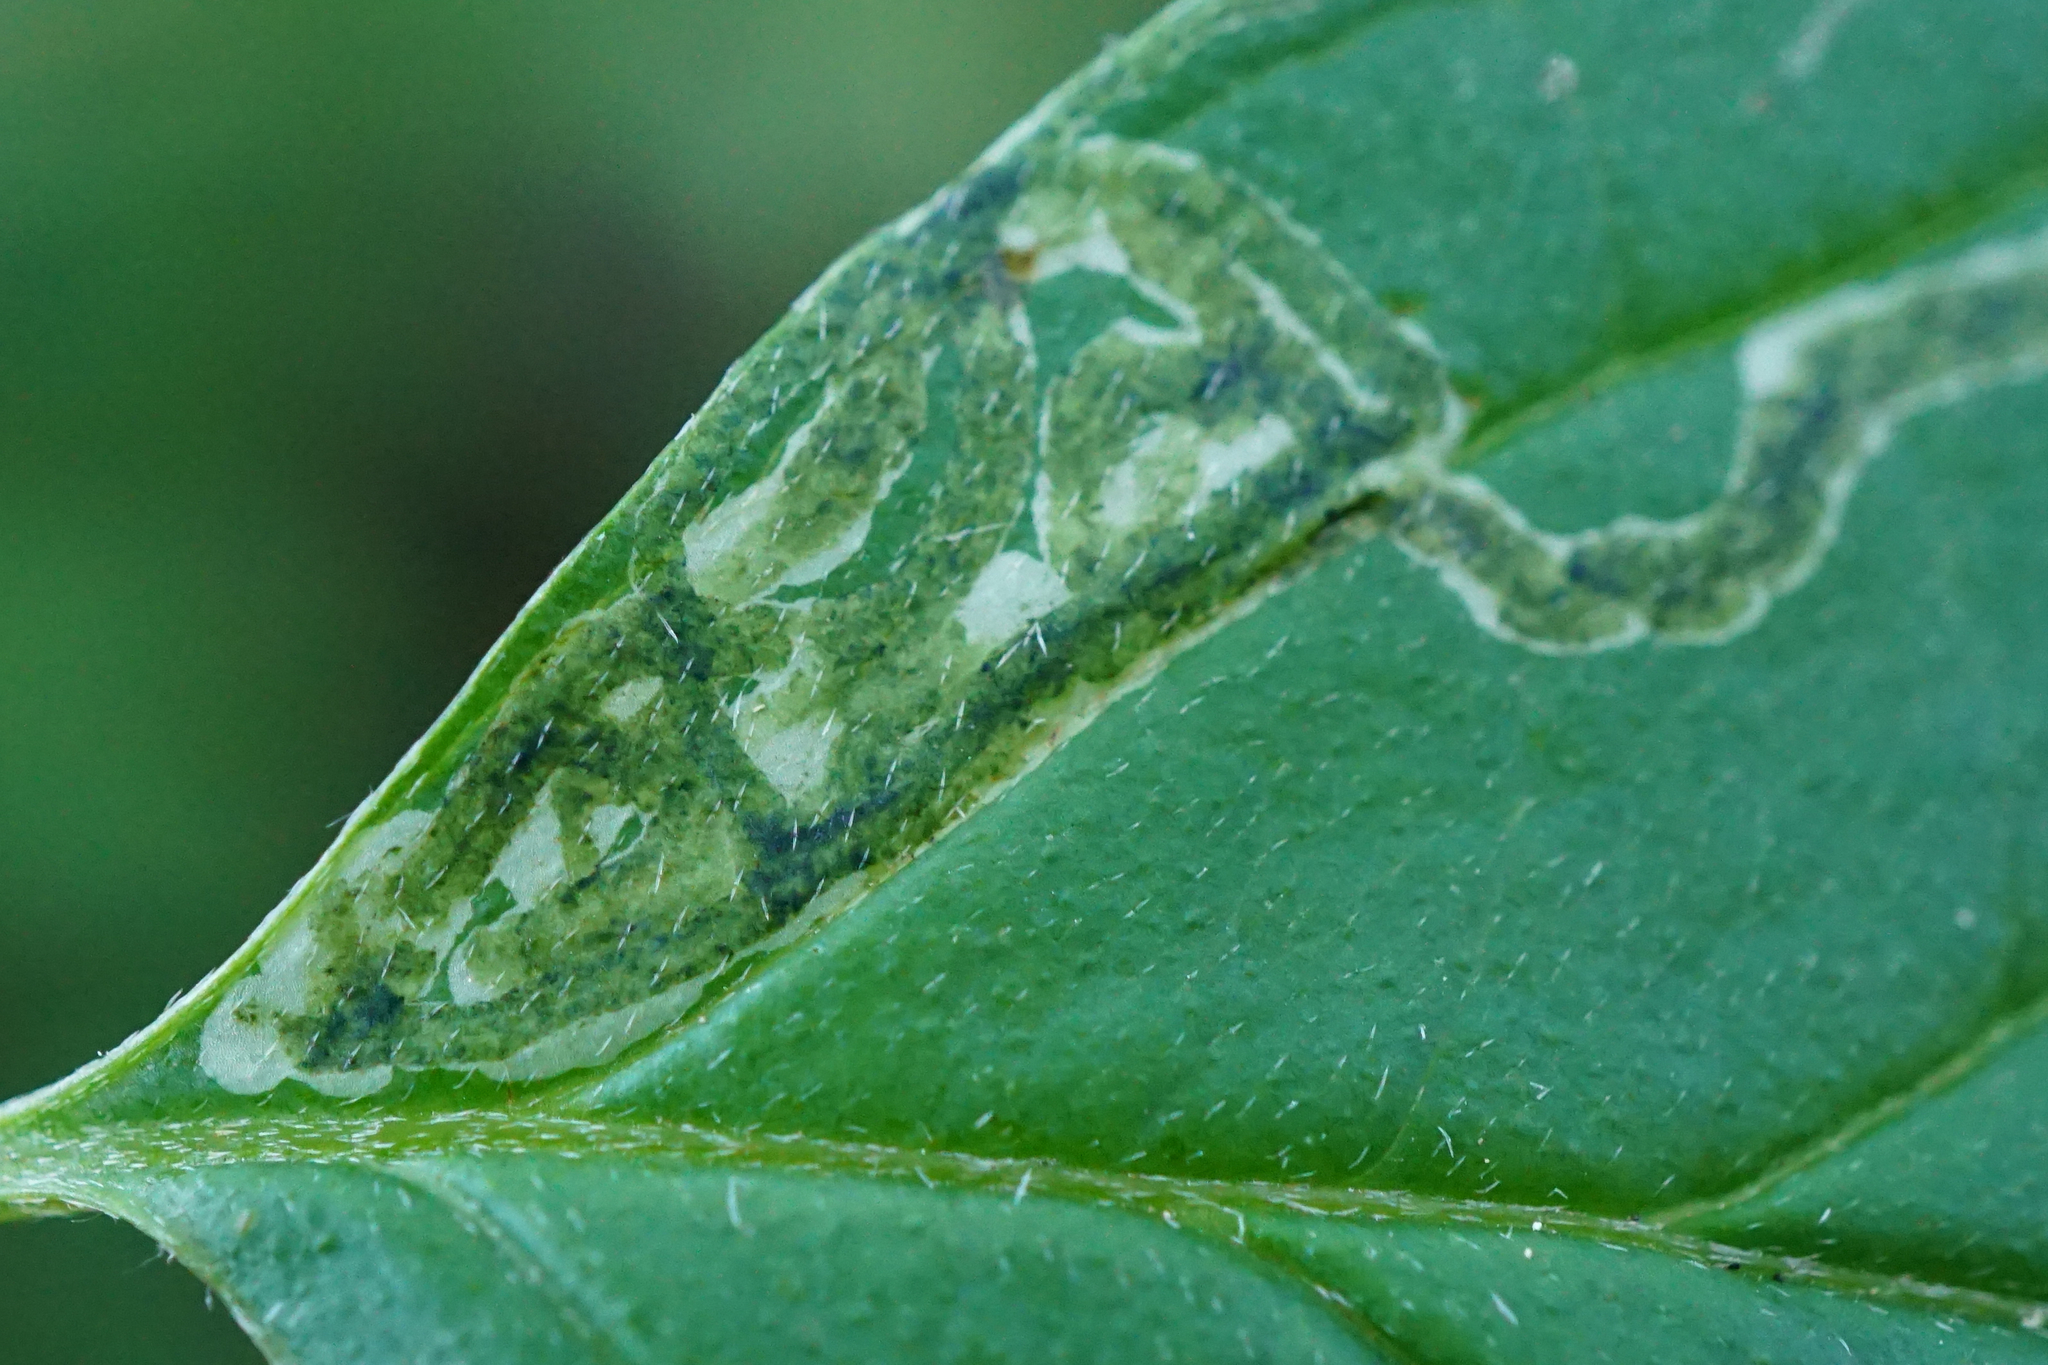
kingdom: Animalia
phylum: Arthropoda
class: Insecta
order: Diptera
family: Agromyzidae
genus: Phytomyza
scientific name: Phytomyza agromyzina
